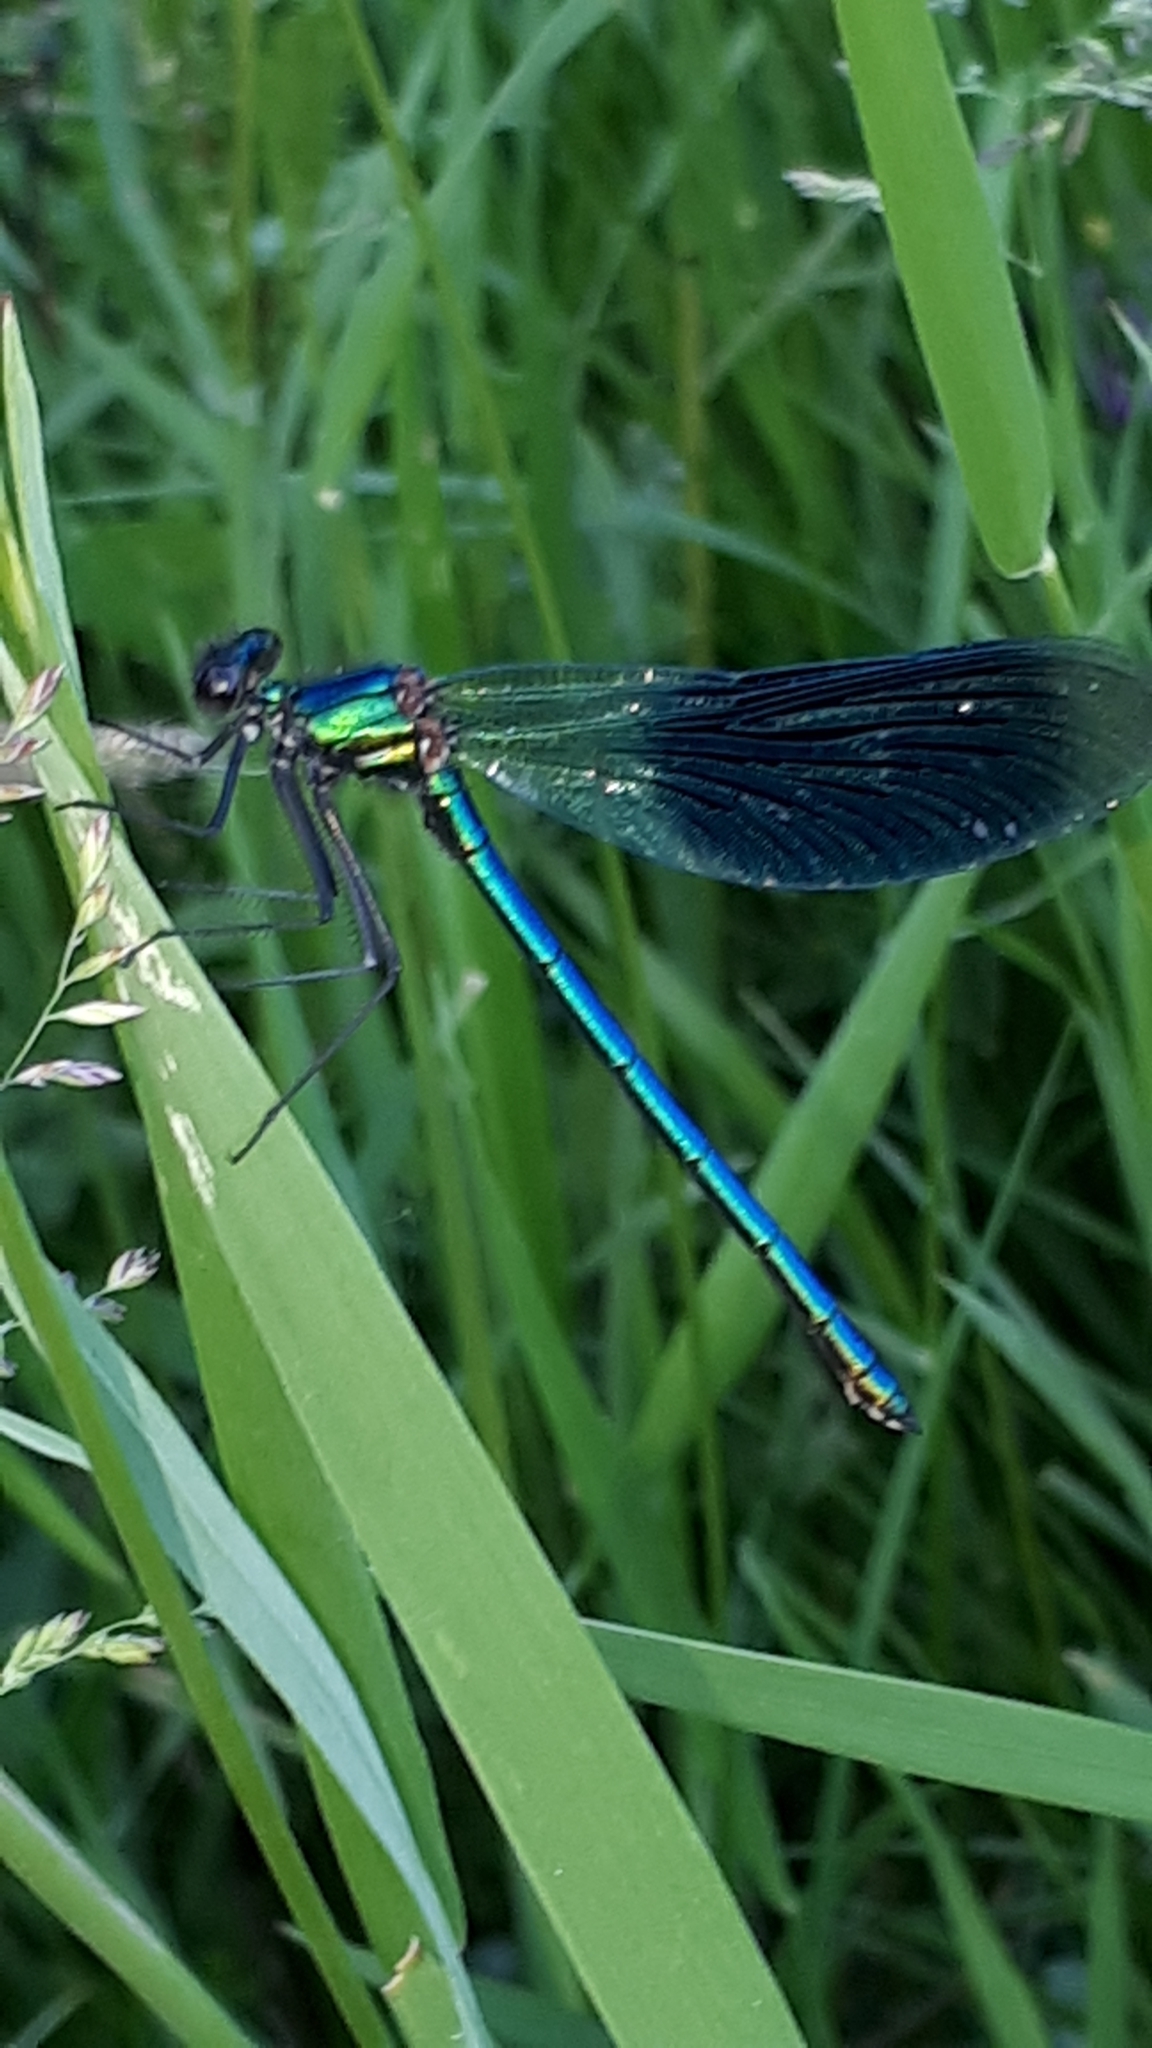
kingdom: Animalia
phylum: Arthropoda
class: Insecta
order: Odonata
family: Calopterygidae
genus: Calopteryx
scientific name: Calopteryx splendens
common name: Banded demoiselle
